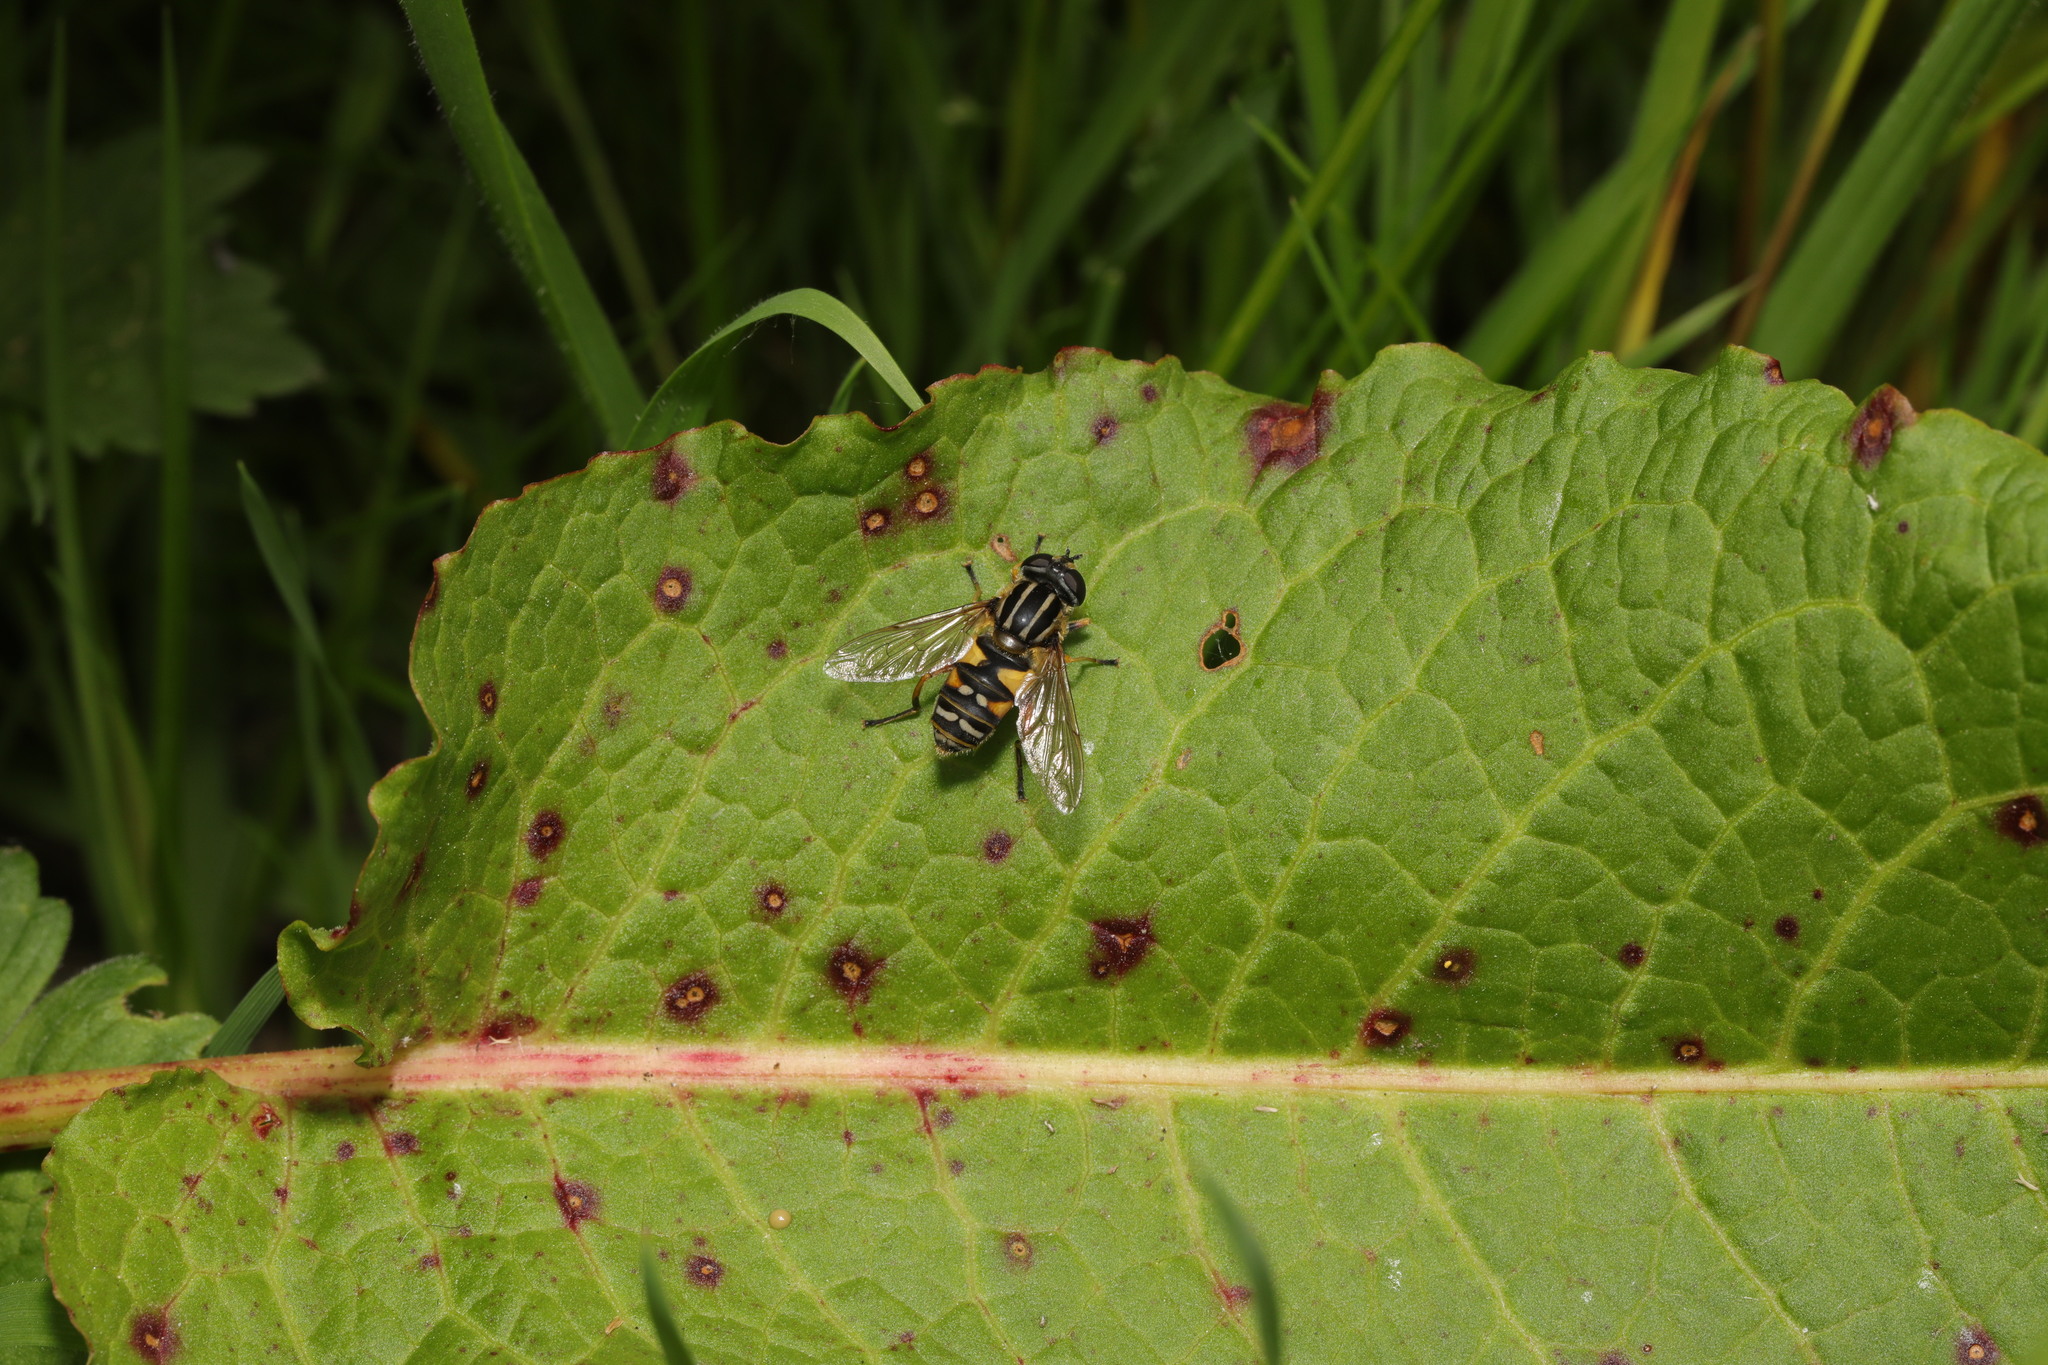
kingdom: Animalia
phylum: Arthropoda
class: Insecta
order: Diptera
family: Syrphidae
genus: Helophilus
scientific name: Helophilus pendulus
